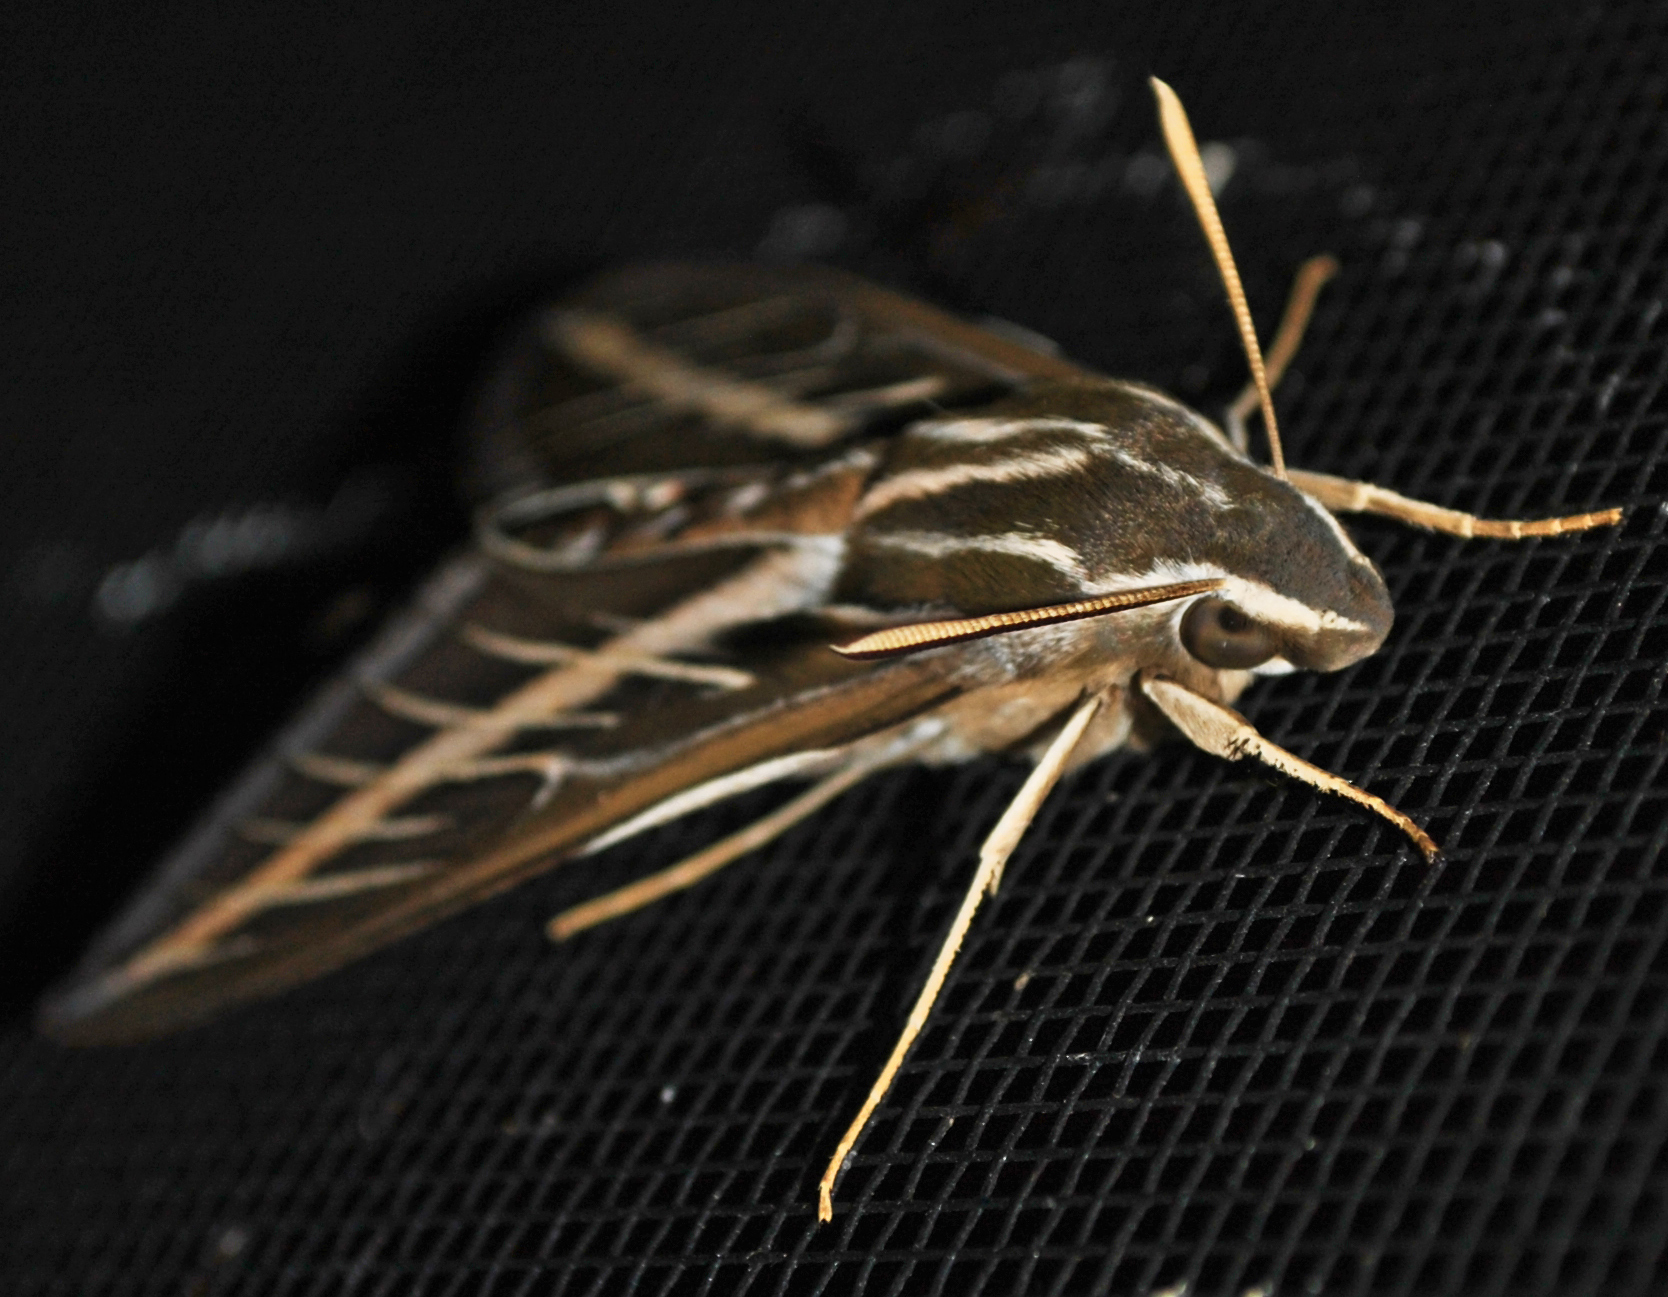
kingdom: Animalia
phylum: Arthropoda
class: Insecta
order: Lepidoptera
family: Sphingidae
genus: Hyles
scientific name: Hyles lineata
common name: White-lined sphinx
